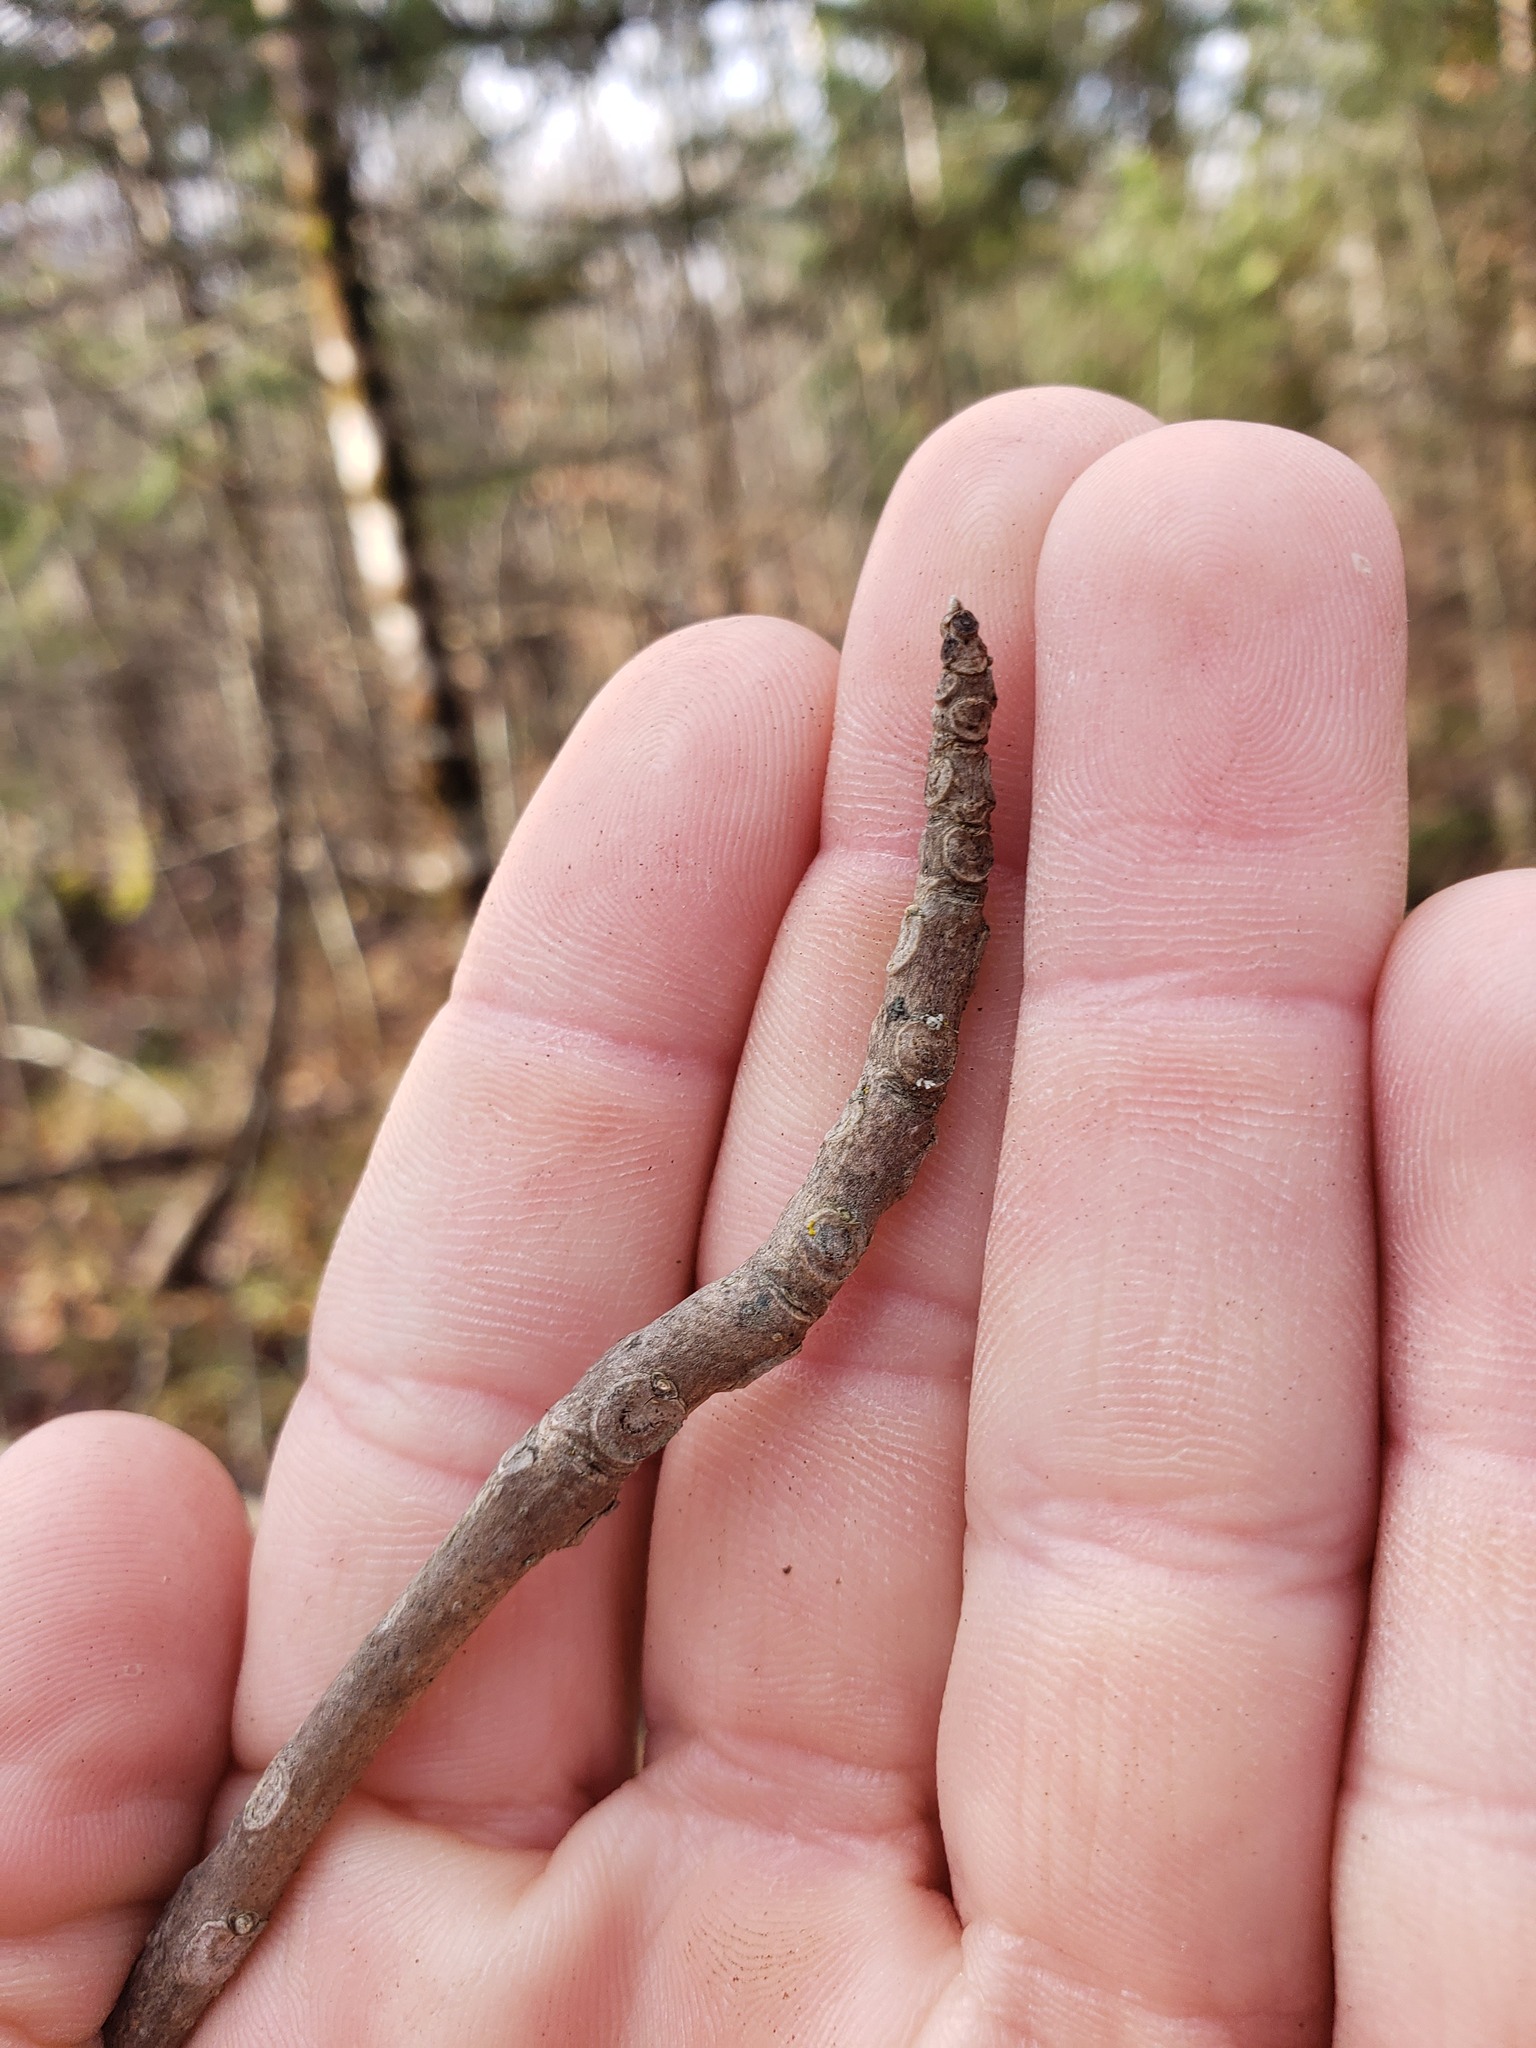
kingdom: Plantae
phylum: Tracheophyta
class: Magnoliopsida
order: Lamiales
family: Oleaceae
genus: Fraxinus
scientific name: Fraxinus nigra
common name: Black ash
